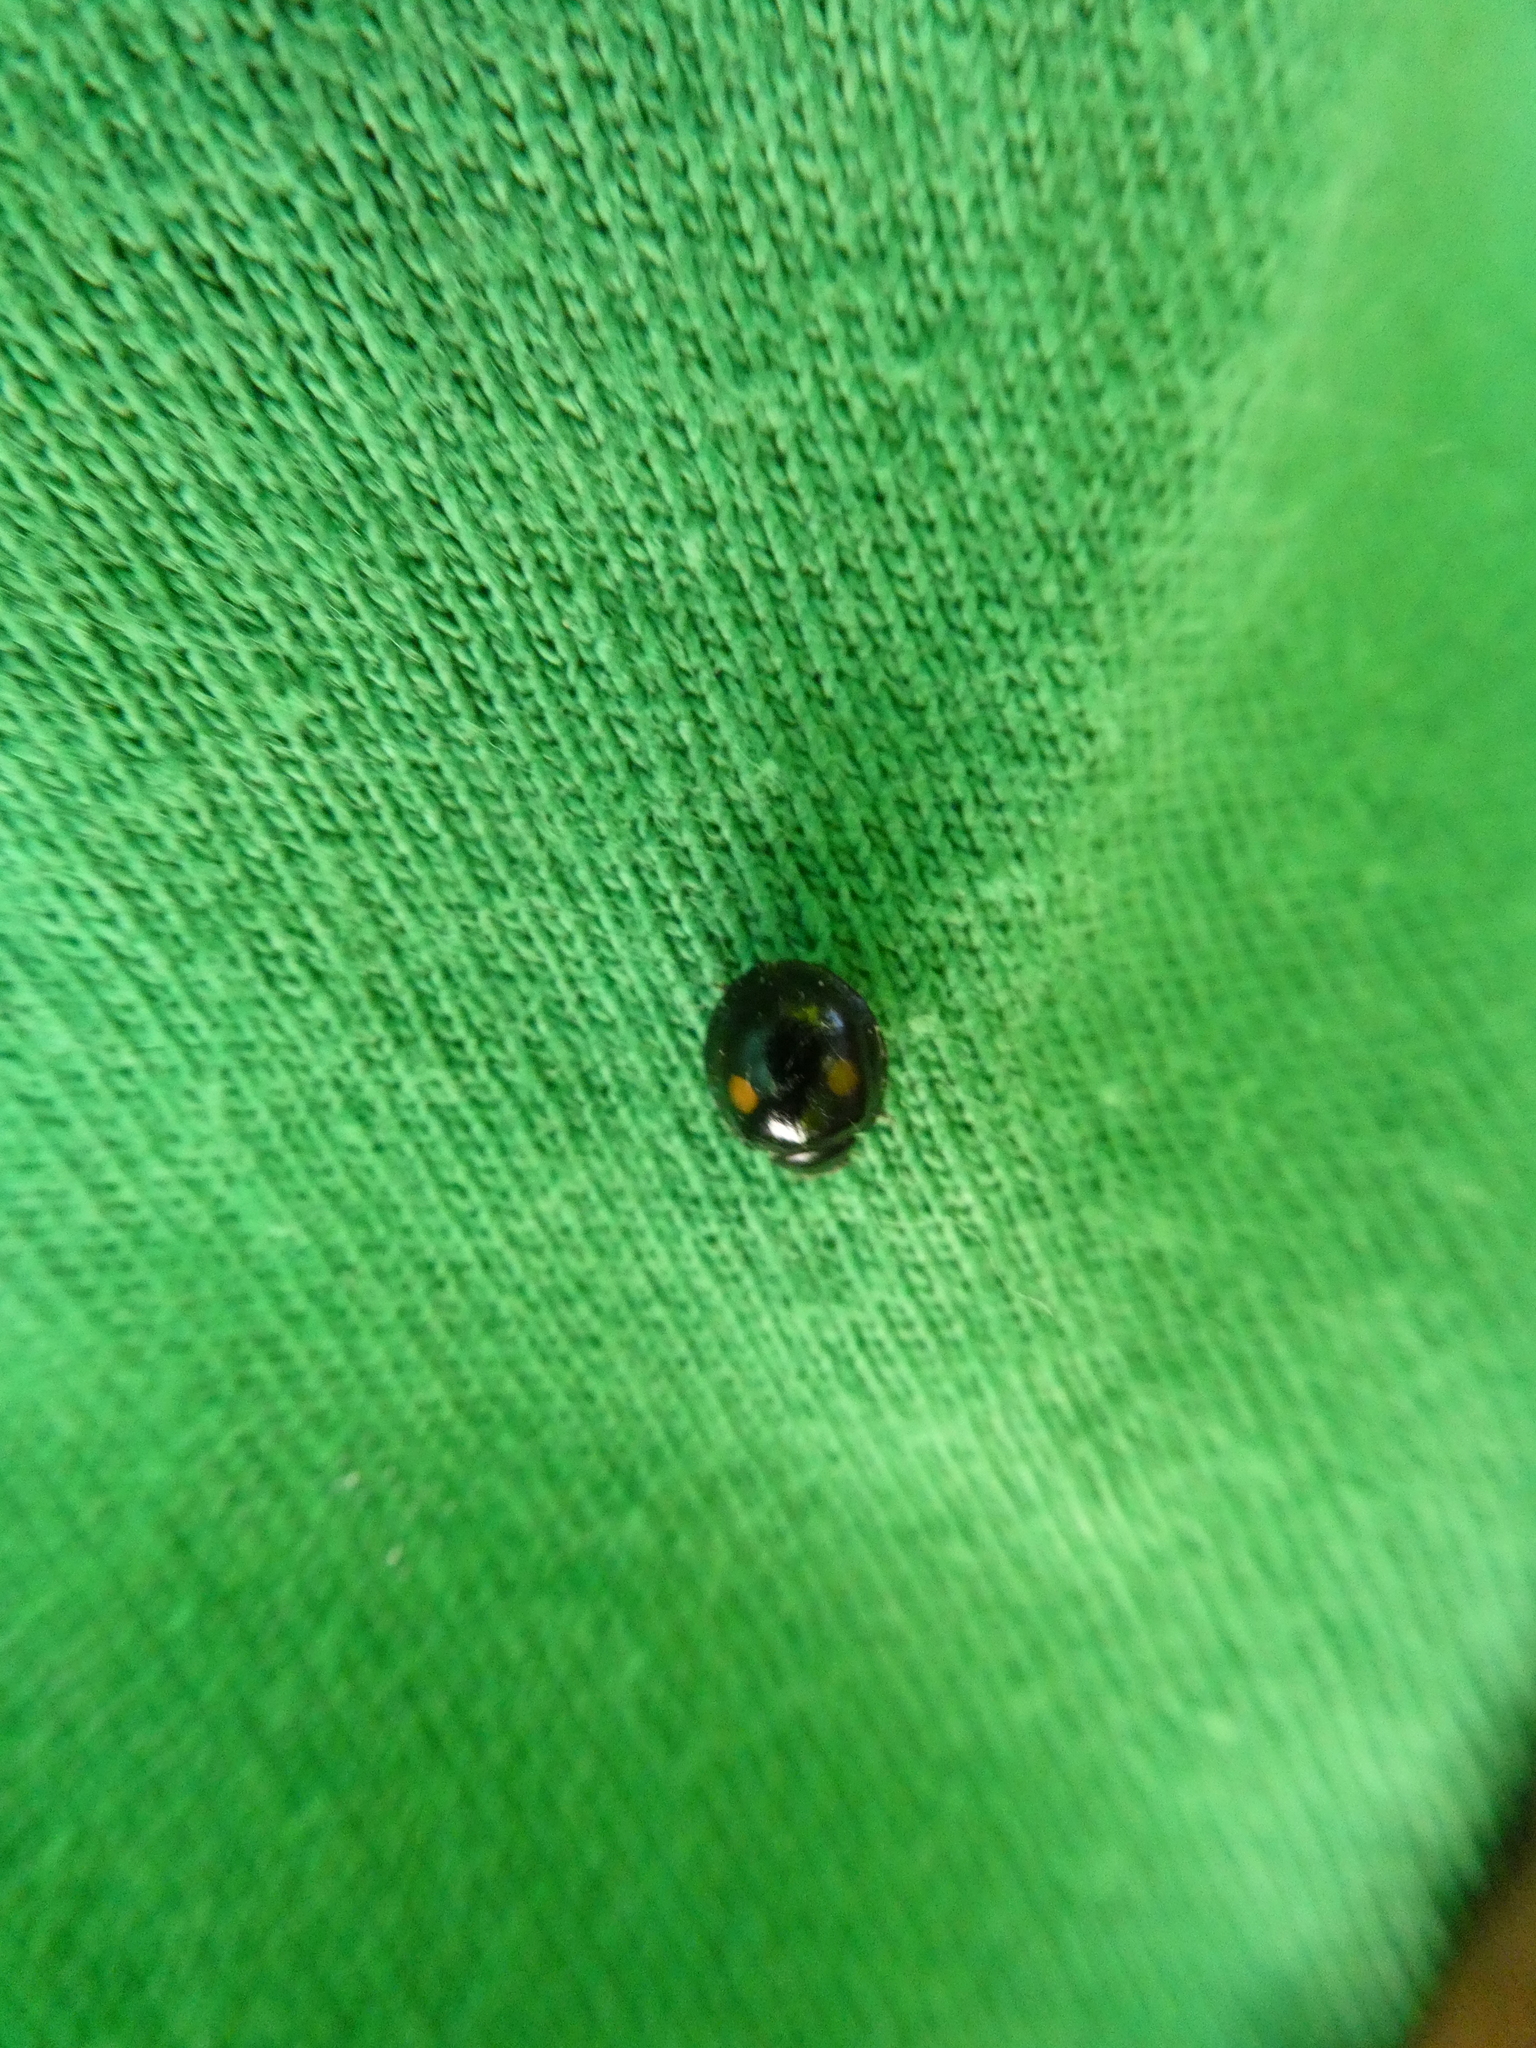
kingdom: Animalia
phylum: Arthropoda
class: Insecta
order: Coleoptera
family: Coccinellidae
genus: Chilocorus
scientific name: Chilocorus stigma
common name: Twicestabbed lady beetle
